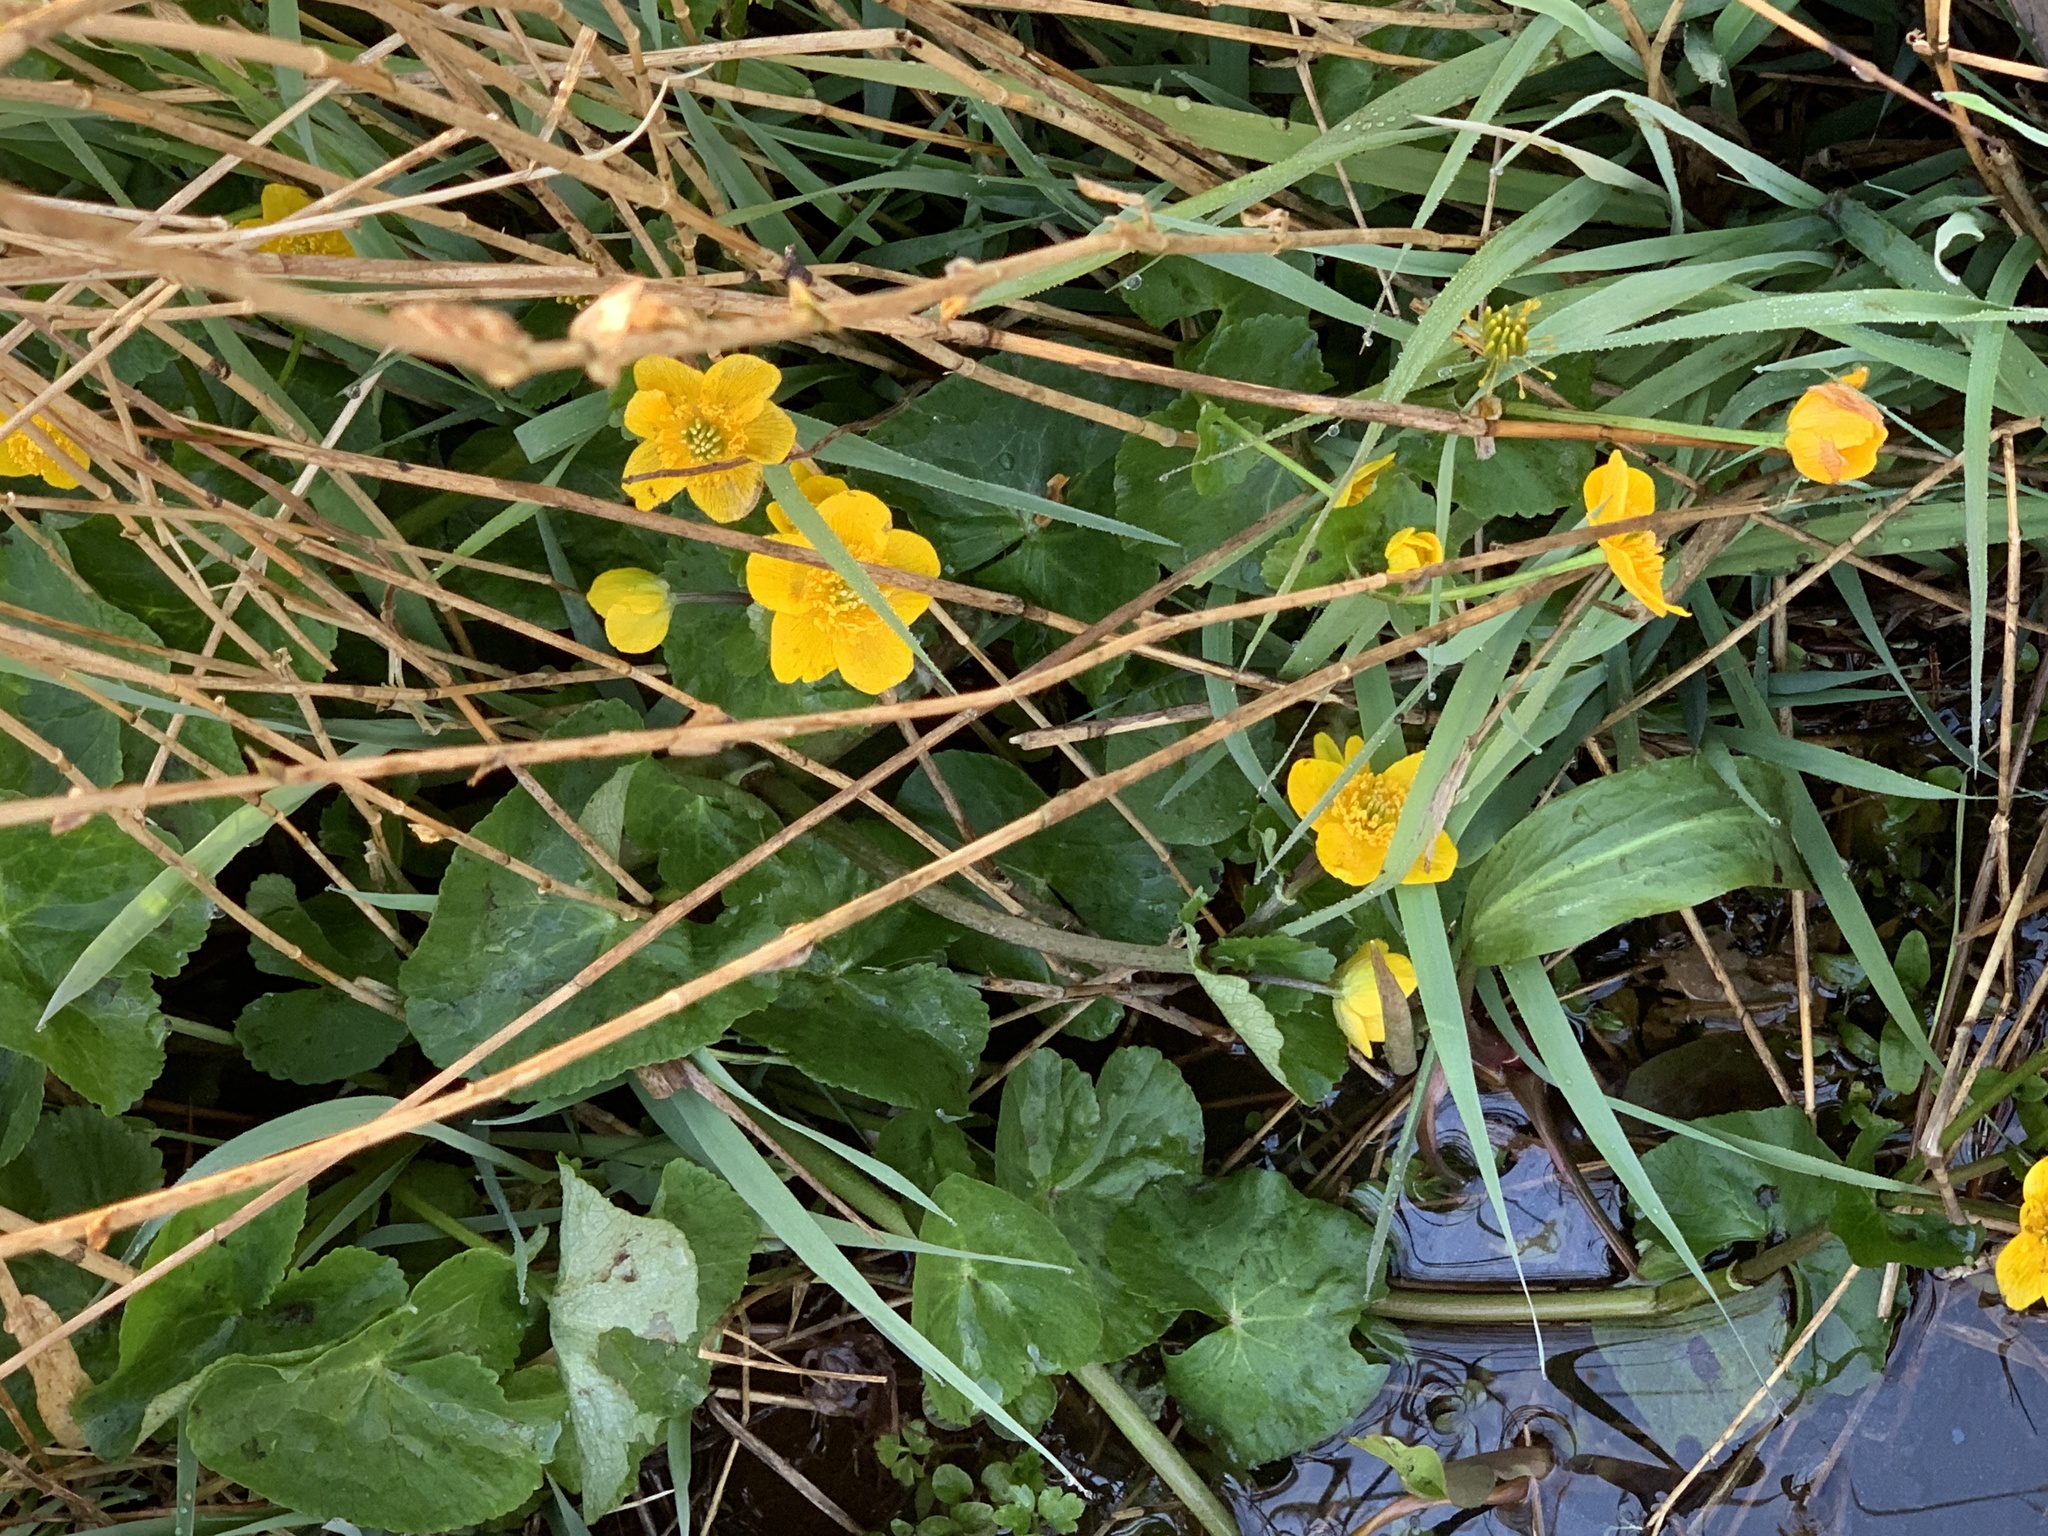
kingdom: Plantae
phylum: Tracheophyta
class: Magnoliopsida
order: Ranunculales
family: Ranunculaceae
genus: Caltha
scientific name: Caltha palustris
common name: Marsh marigold
